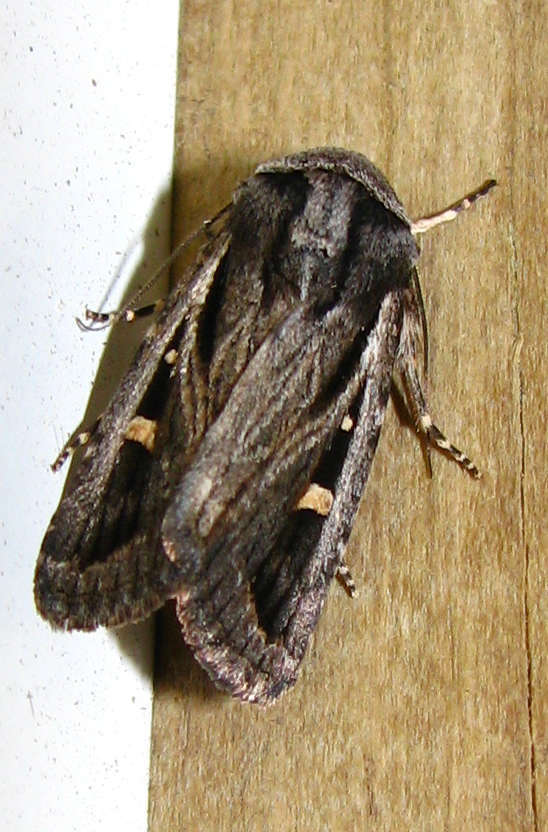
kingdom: Animalia
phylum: Arthropoda
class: Insecta
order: Lepidoptera
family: Noctuidae
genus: Proteuxoa
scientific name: Proteuxoa chrysospila
